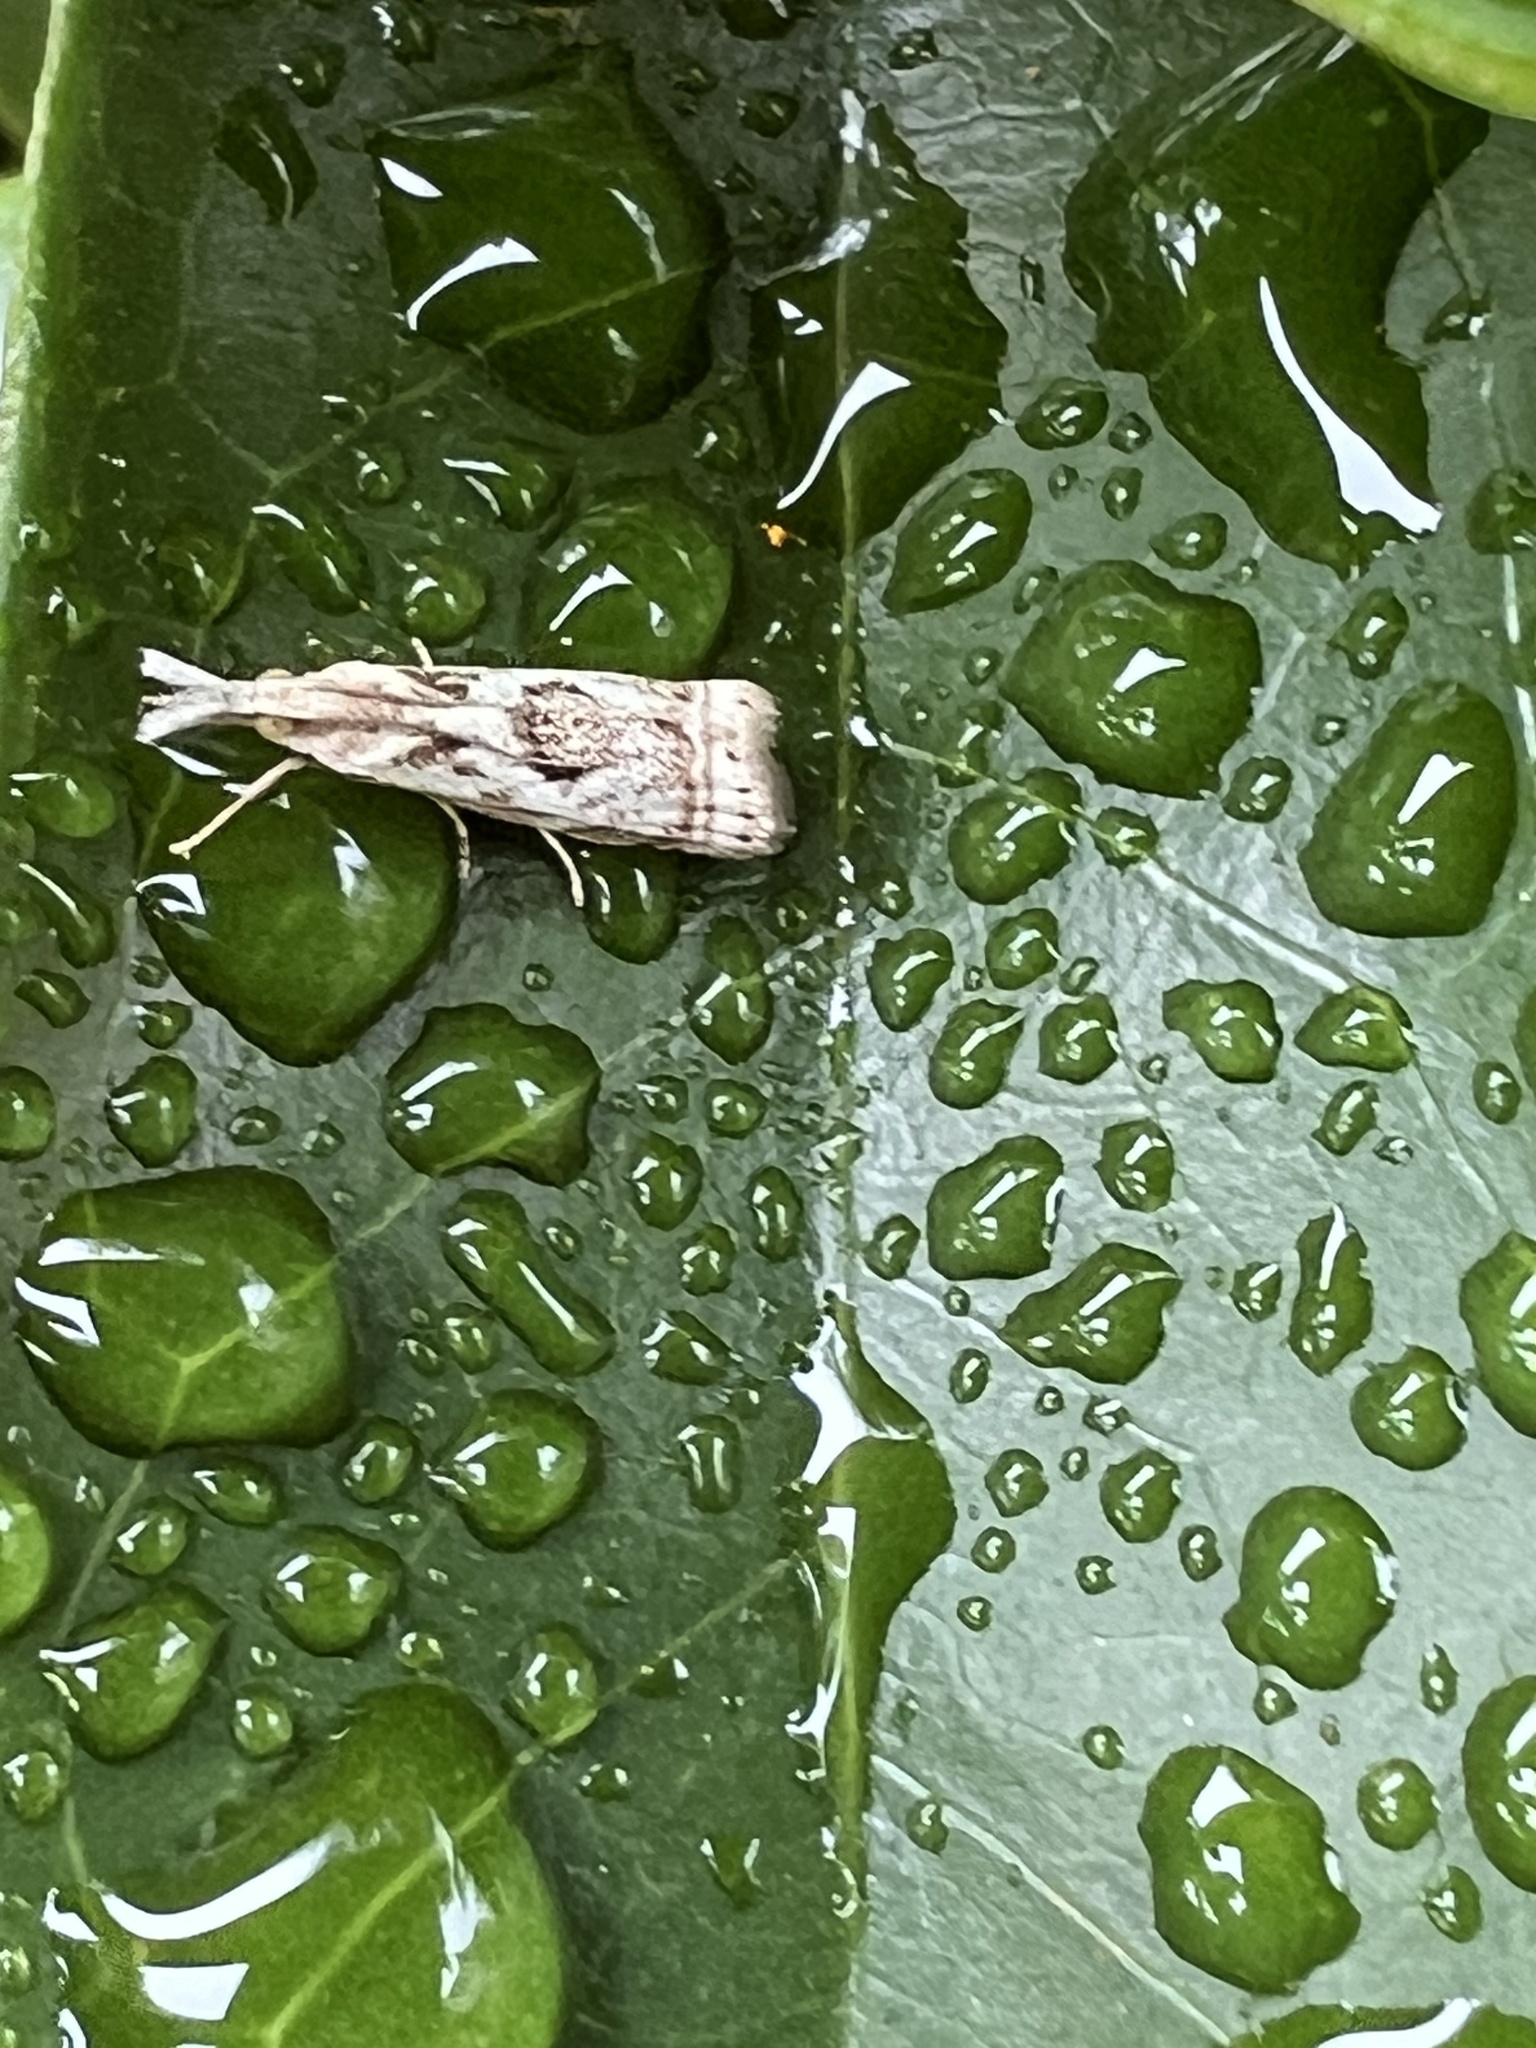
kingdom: Animalia
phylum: Arthropoda
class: Insecta
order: Lepidoptera
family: Crambidae
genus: Microcrambus
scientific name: Microcrambus elegans
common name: Elegant grass-veneer
